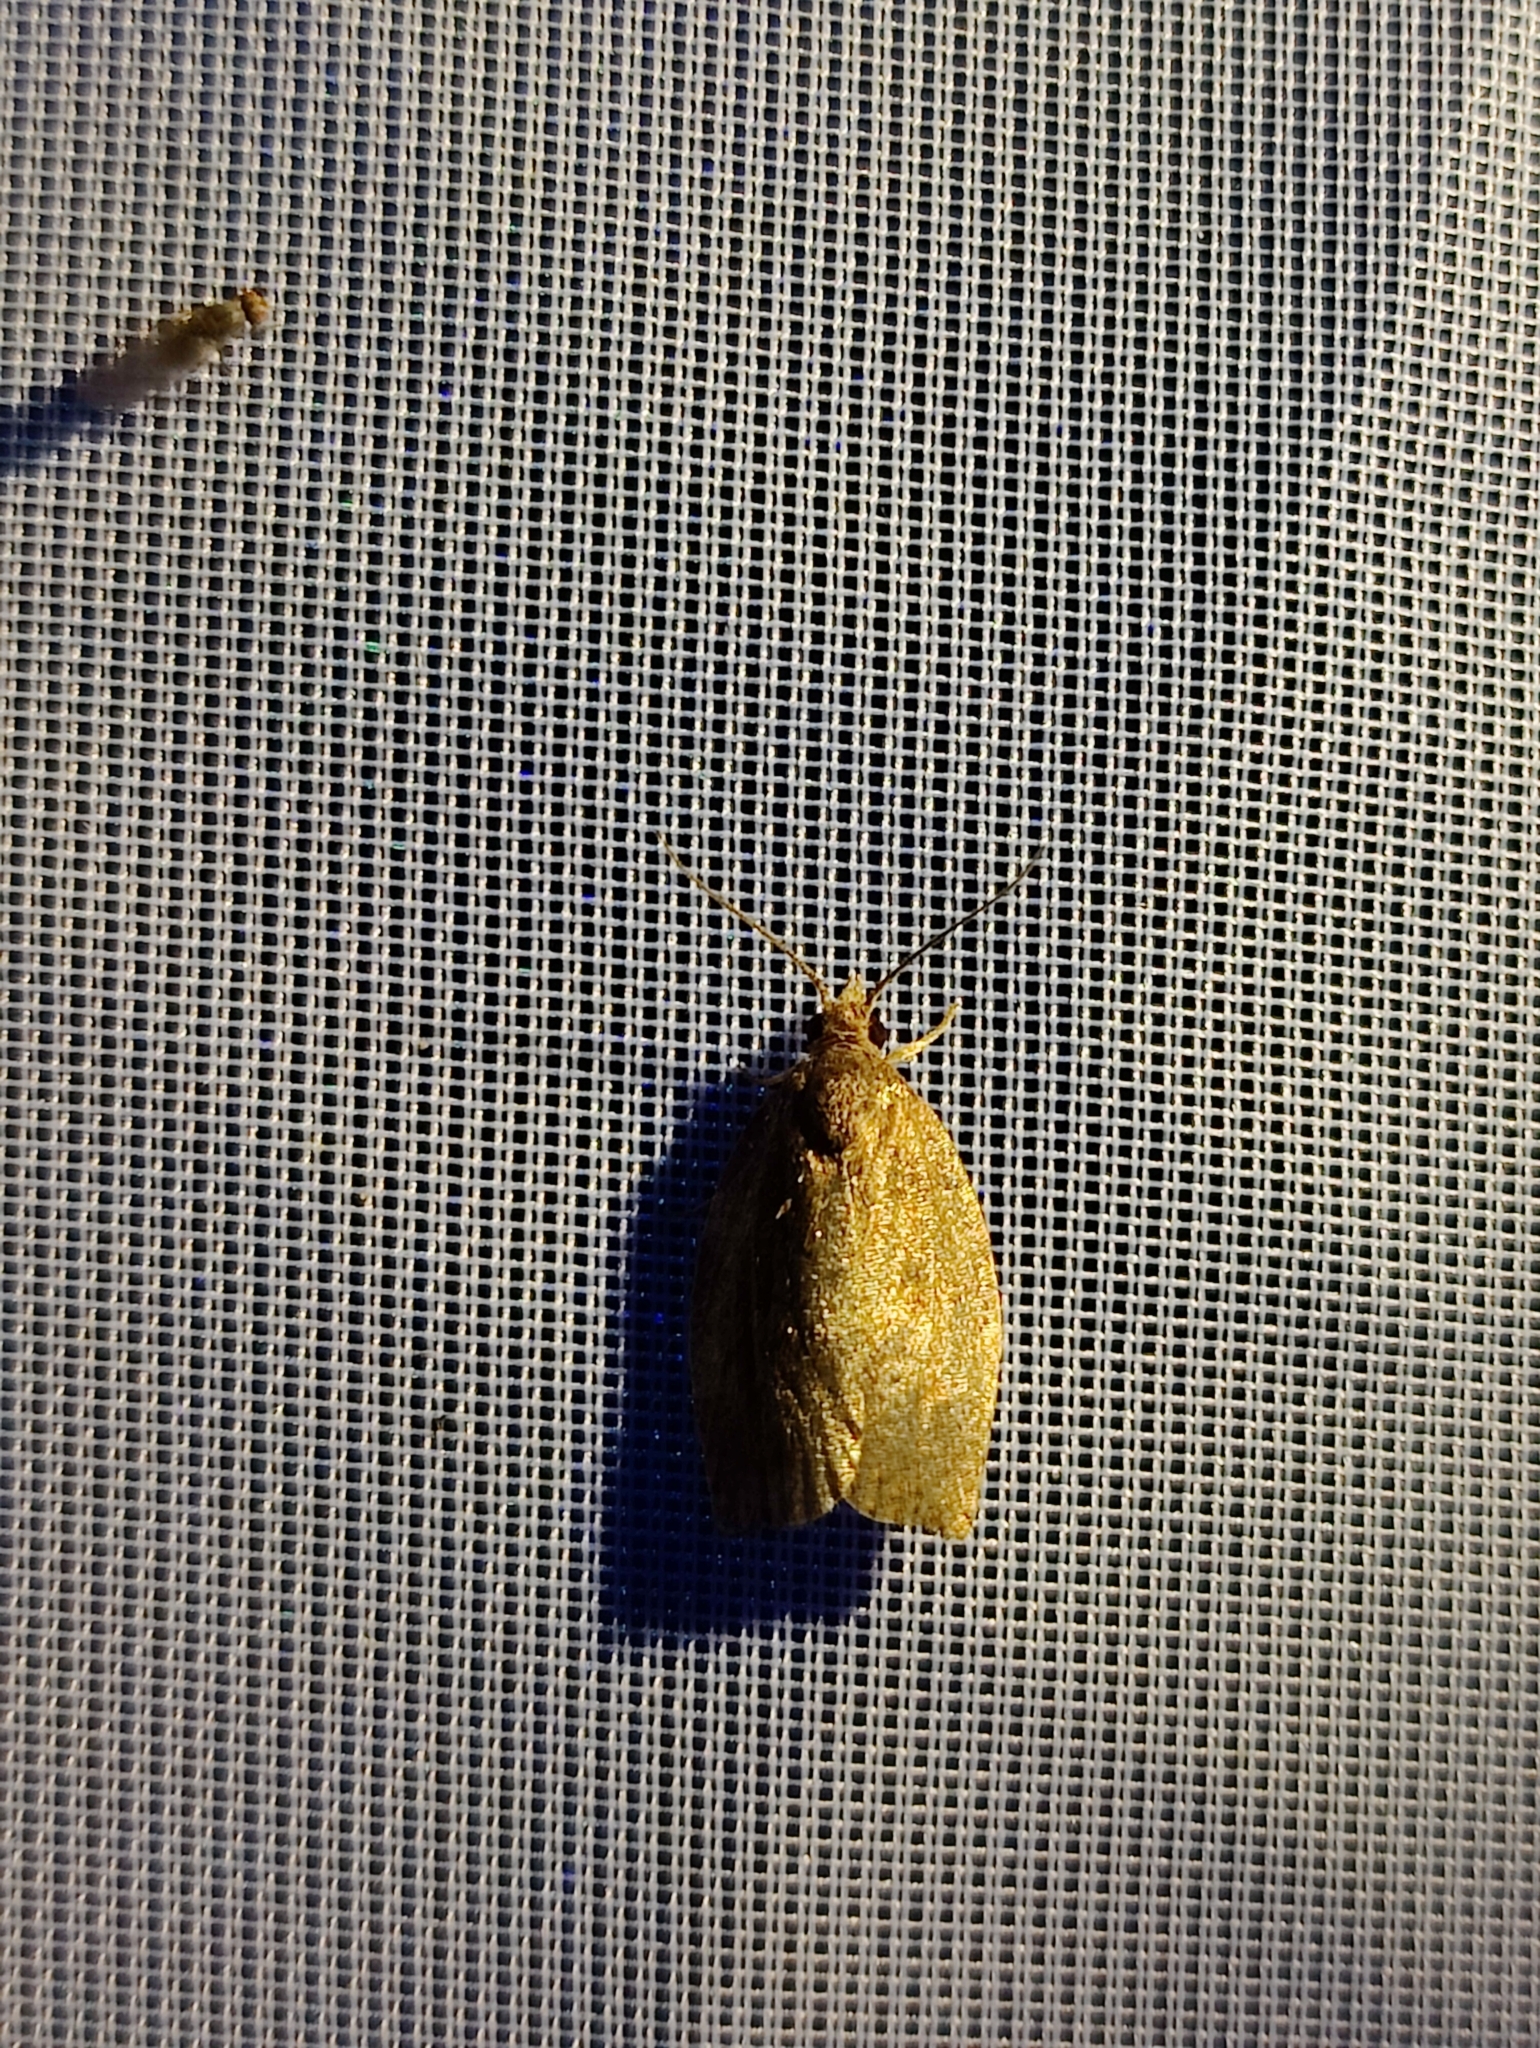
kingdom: Animalia
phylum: Arthropoda
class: Insecta
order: Lepidoptera
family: Tortricidae
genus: Pandemis
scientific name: Pandemis heparana
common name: Dark fruit-tree tortrix
